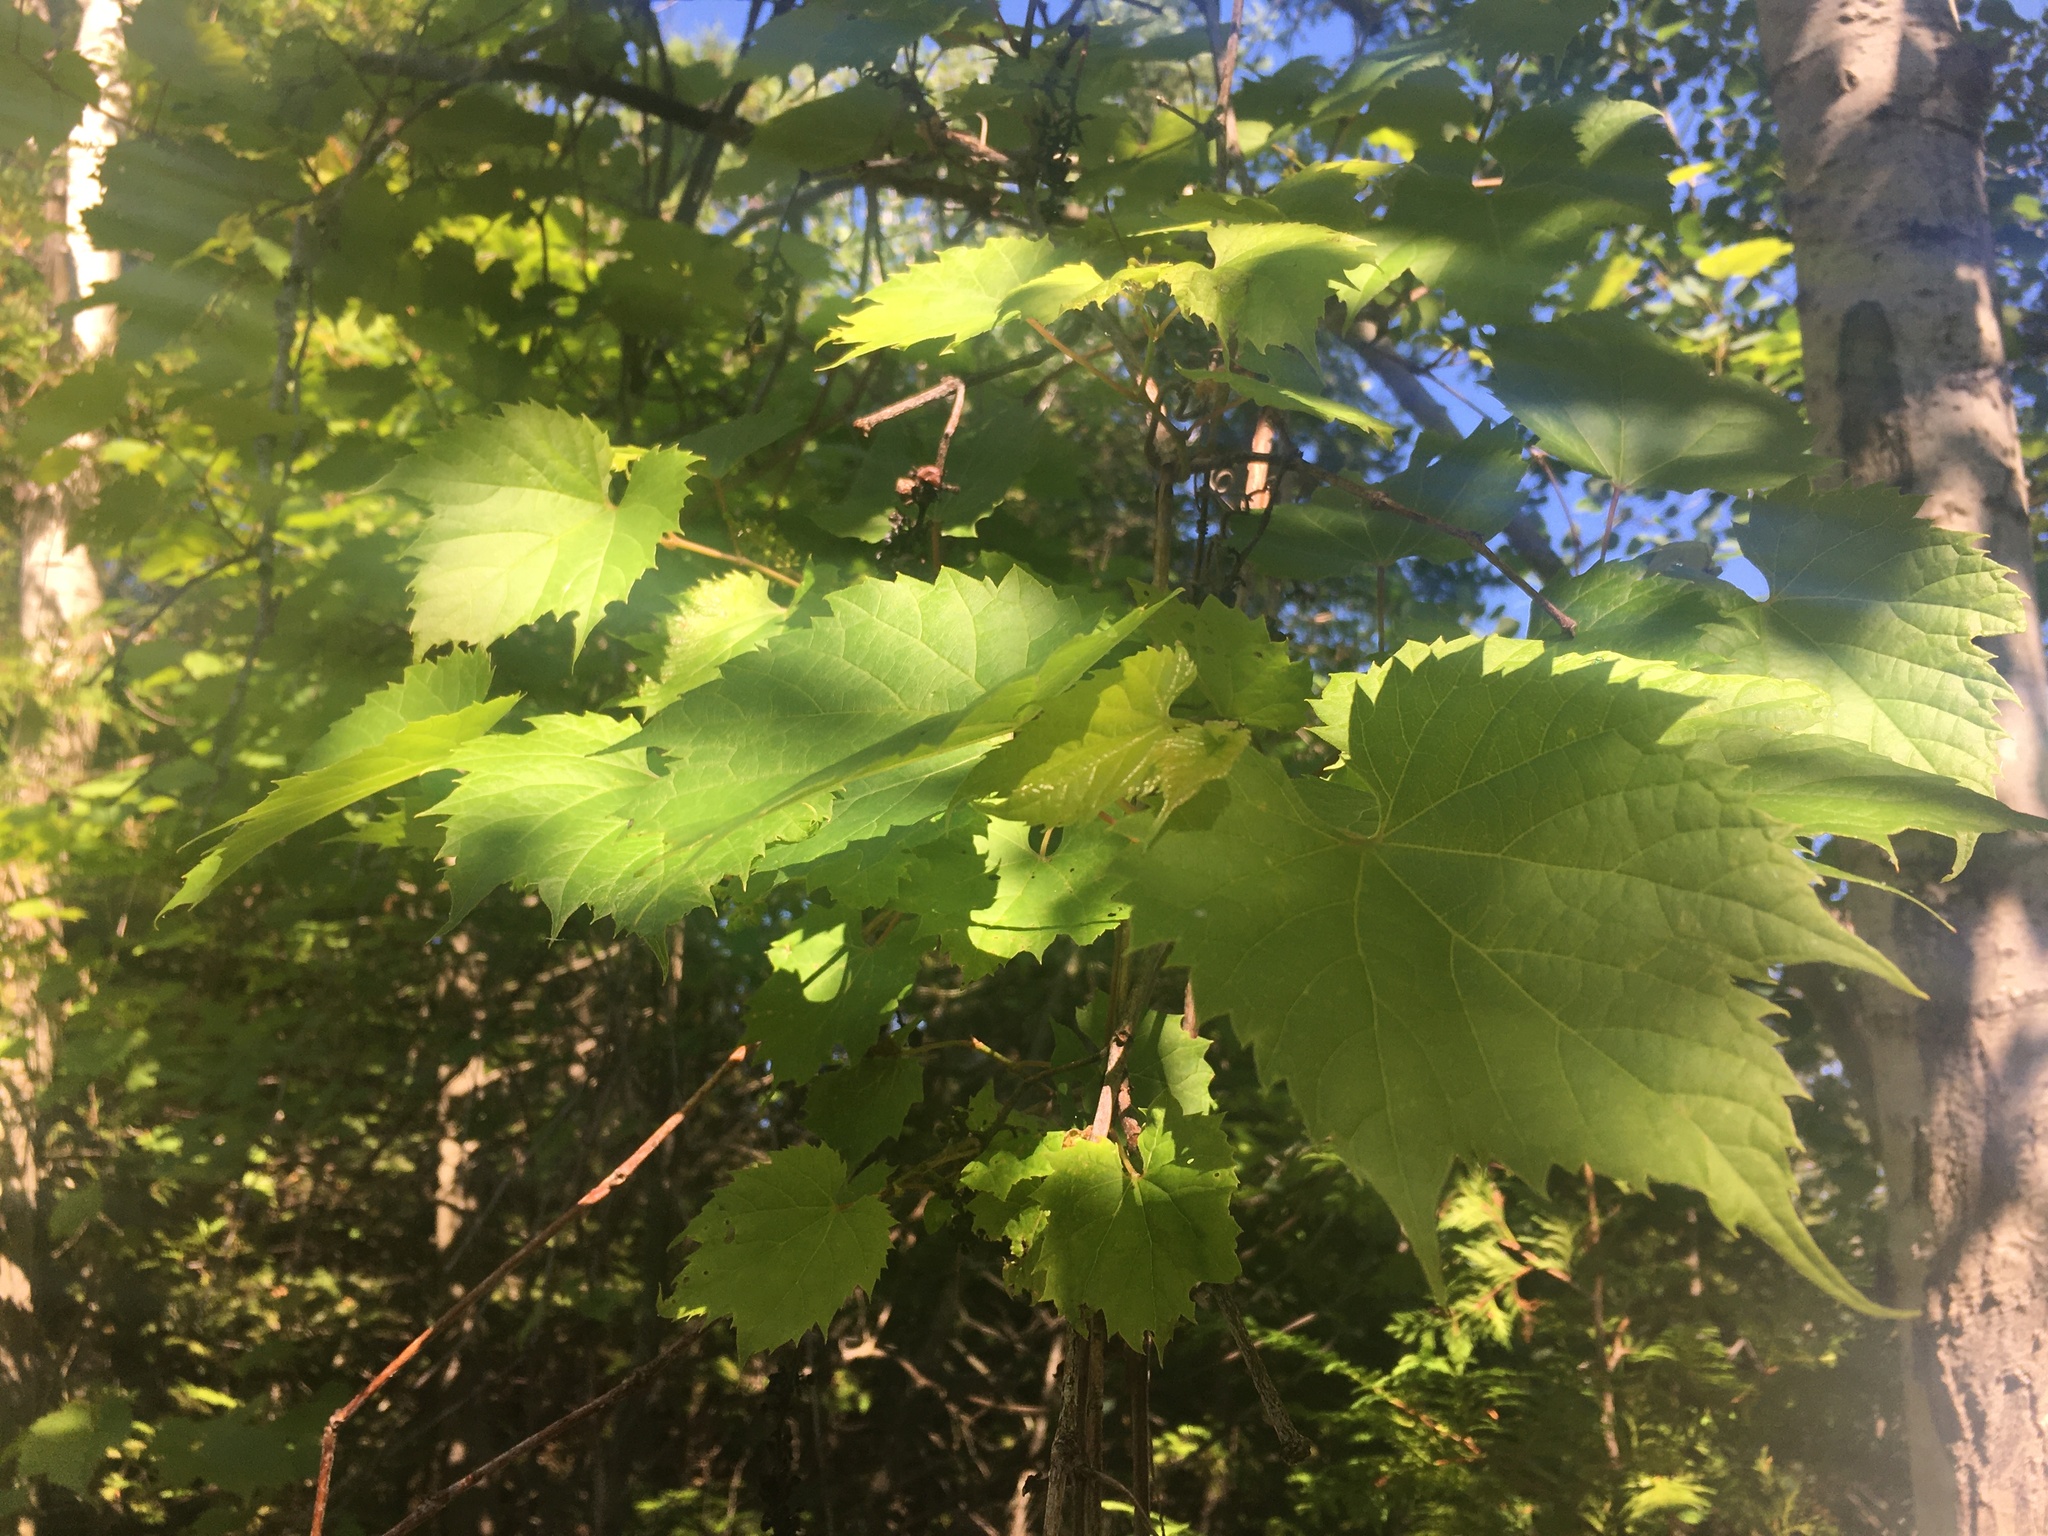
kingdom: Plantae
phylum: Tracheophyta
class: Magnoliopsida
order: Vitales
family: Vitaceae
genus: Vitis
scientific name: Vitis riparia
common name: Frost grape
